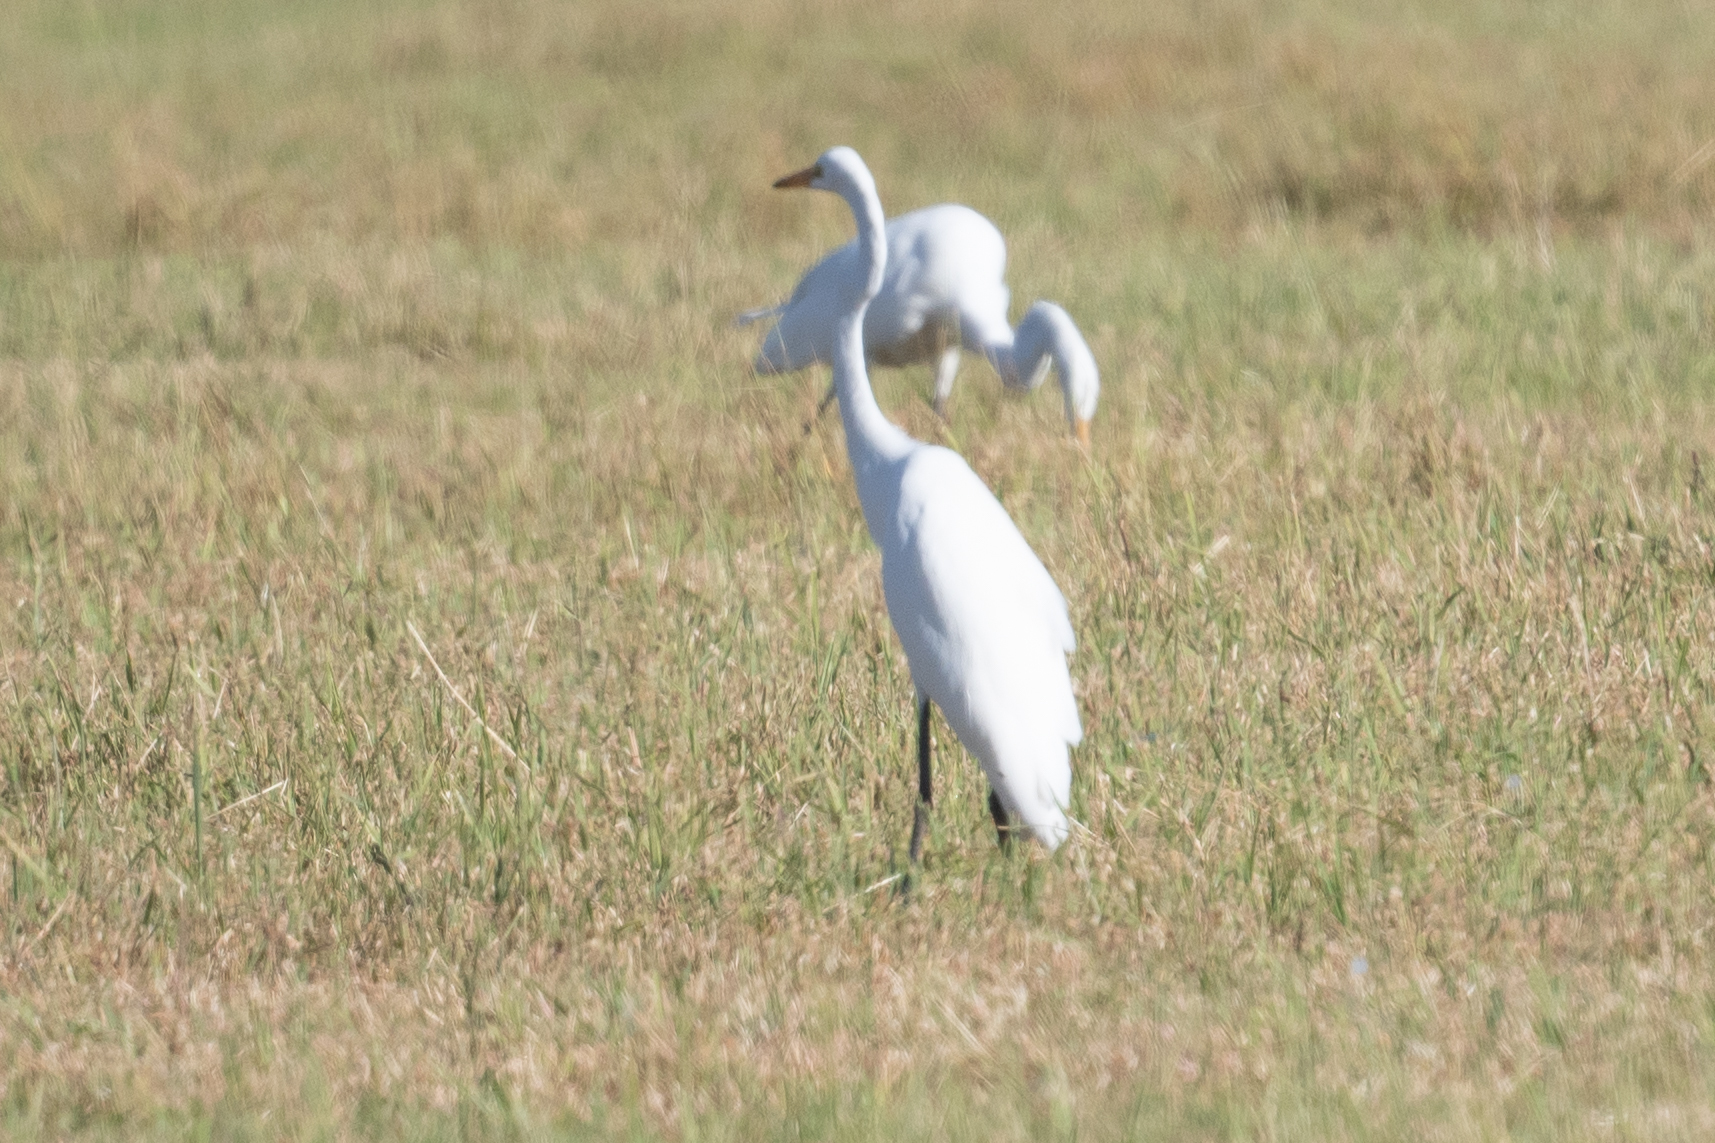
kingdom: Animalia
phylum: Chordata
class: Aves
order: Pelecaniformes
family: Ardeidae
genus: Ardea
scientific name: Ardea alba
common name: Great egret
